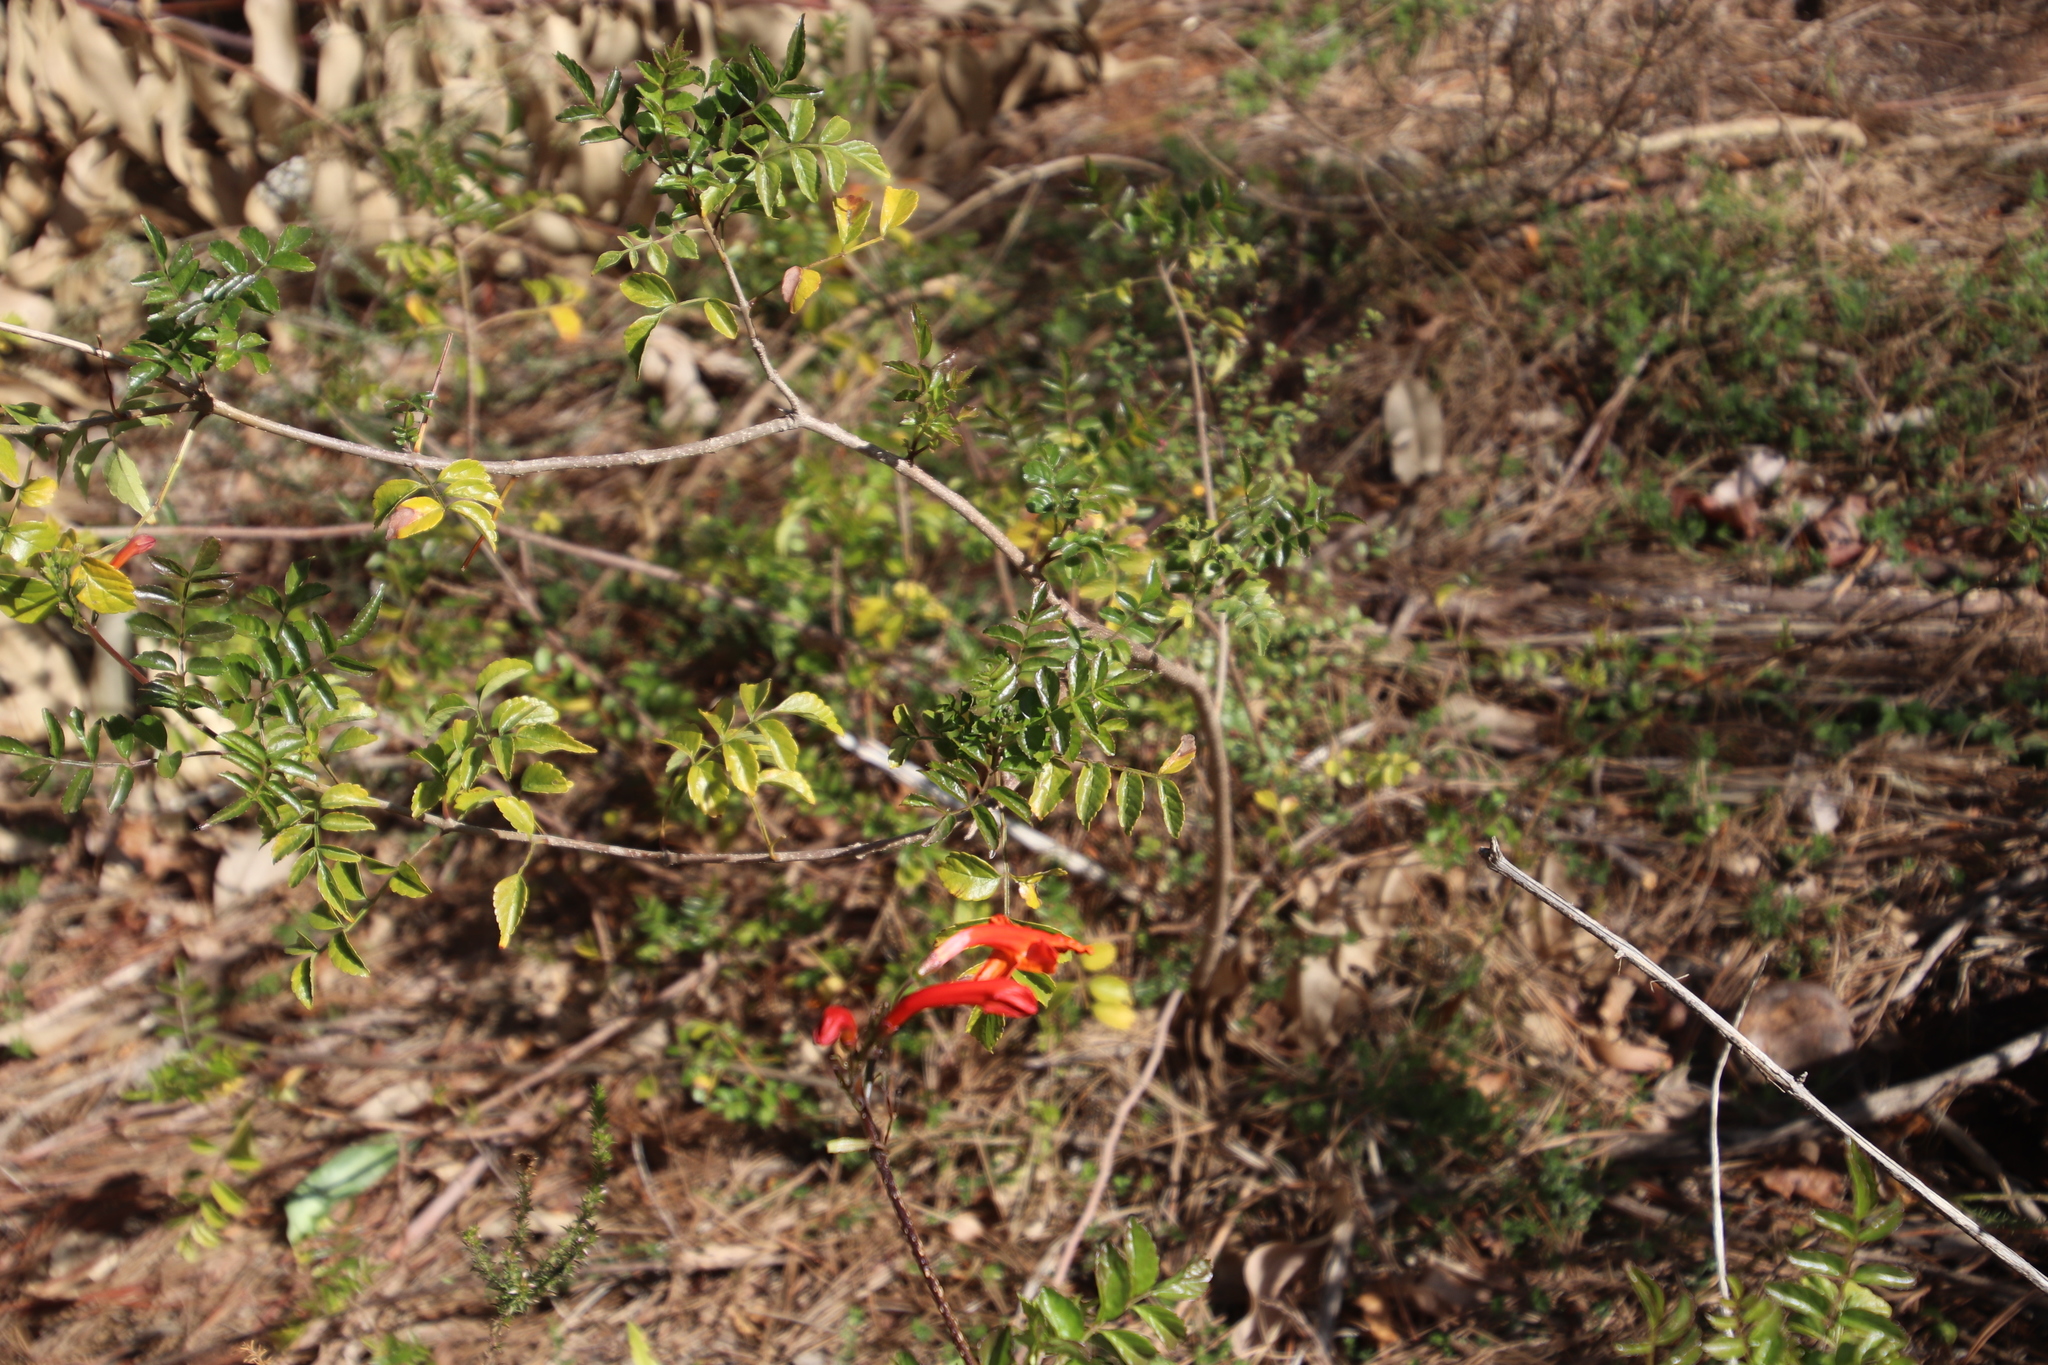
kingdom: Plantae
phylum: Tracheophyta
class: Magnoliopsida
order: Lamiales
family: Bignoniaceae
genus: Tecomaria
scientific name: Tecomaria capensis
